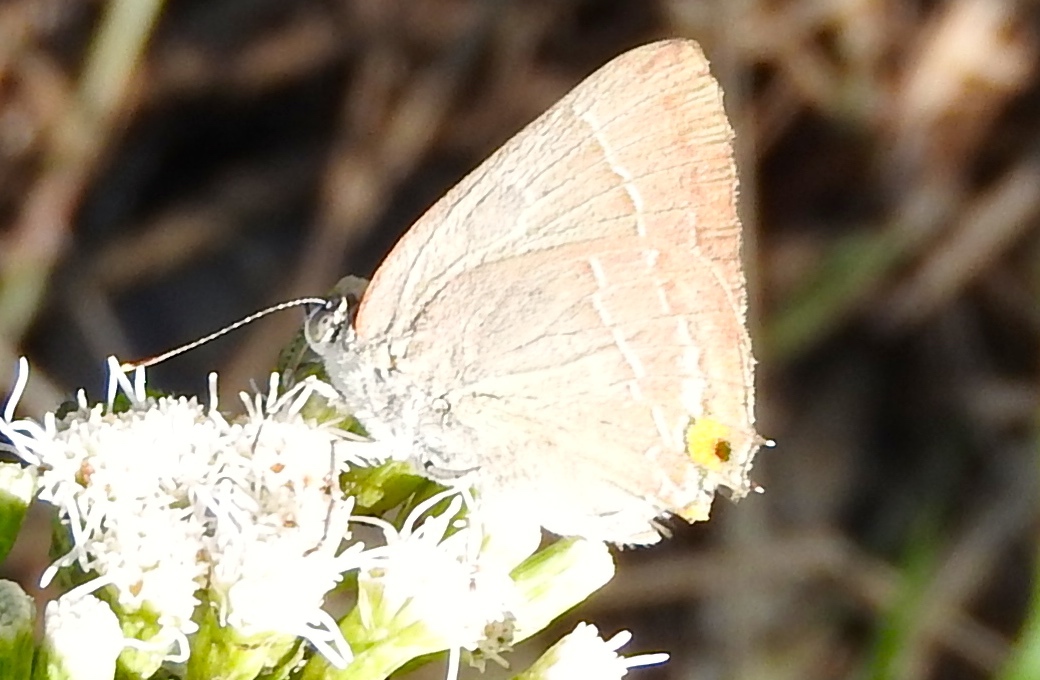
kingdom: Animalia
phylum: Arthropoda
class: Insecta
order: Lepidoptera
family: Lycaenidae
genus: Rekoa
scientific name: Rekoa
